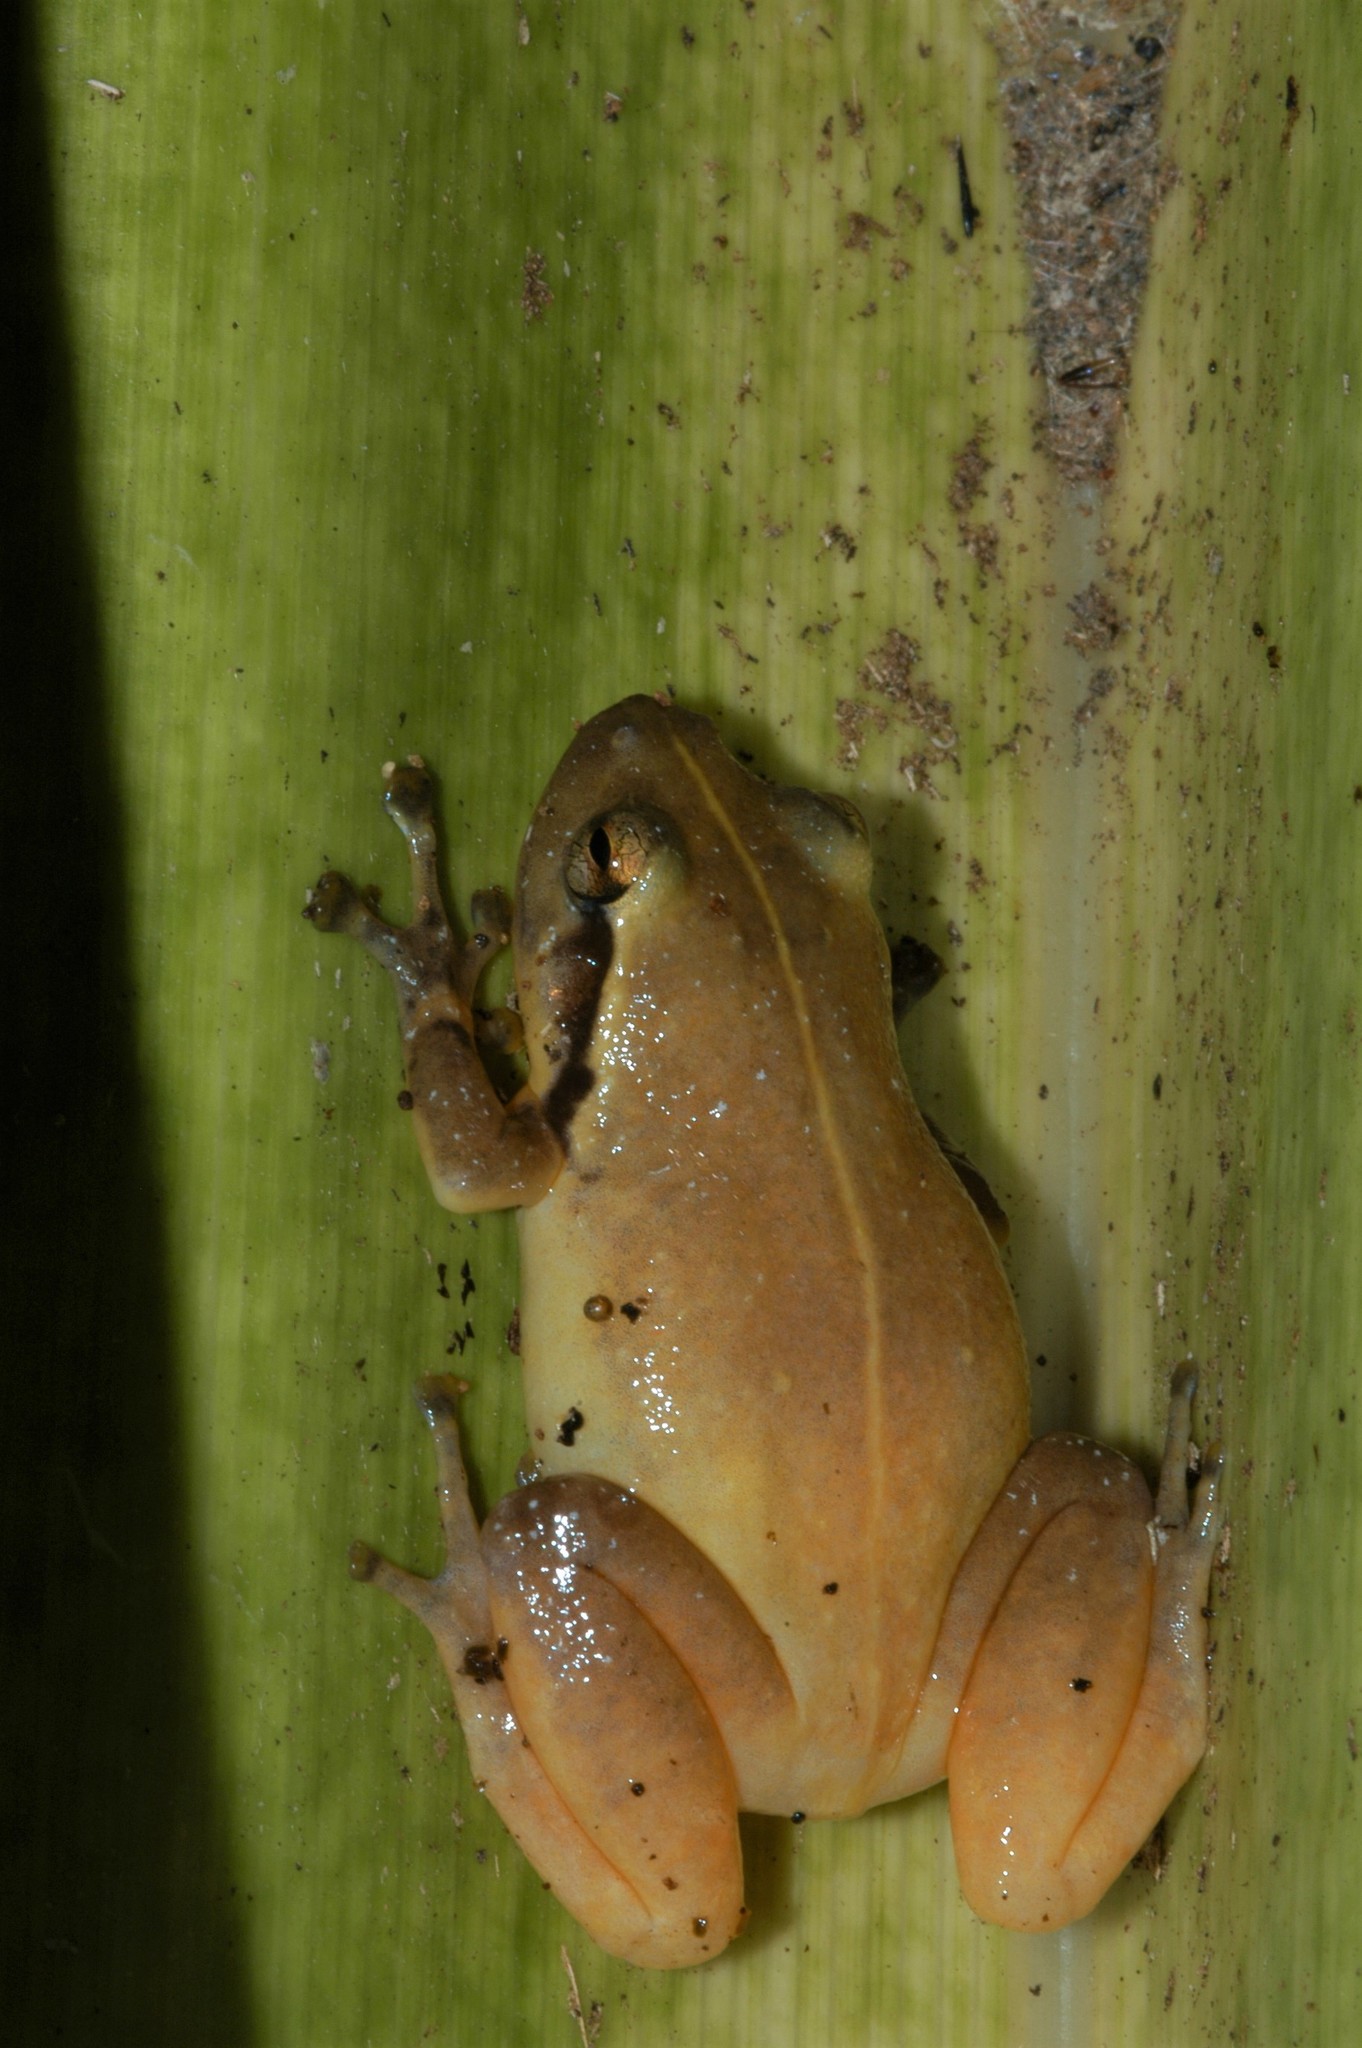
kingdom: Animalia
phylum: Chordata
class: Amphibia
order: Anura
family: Microhylidae
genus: Cophyla
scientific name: Cophyla tuberifera
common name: Ambatoharanana giant treefrog
